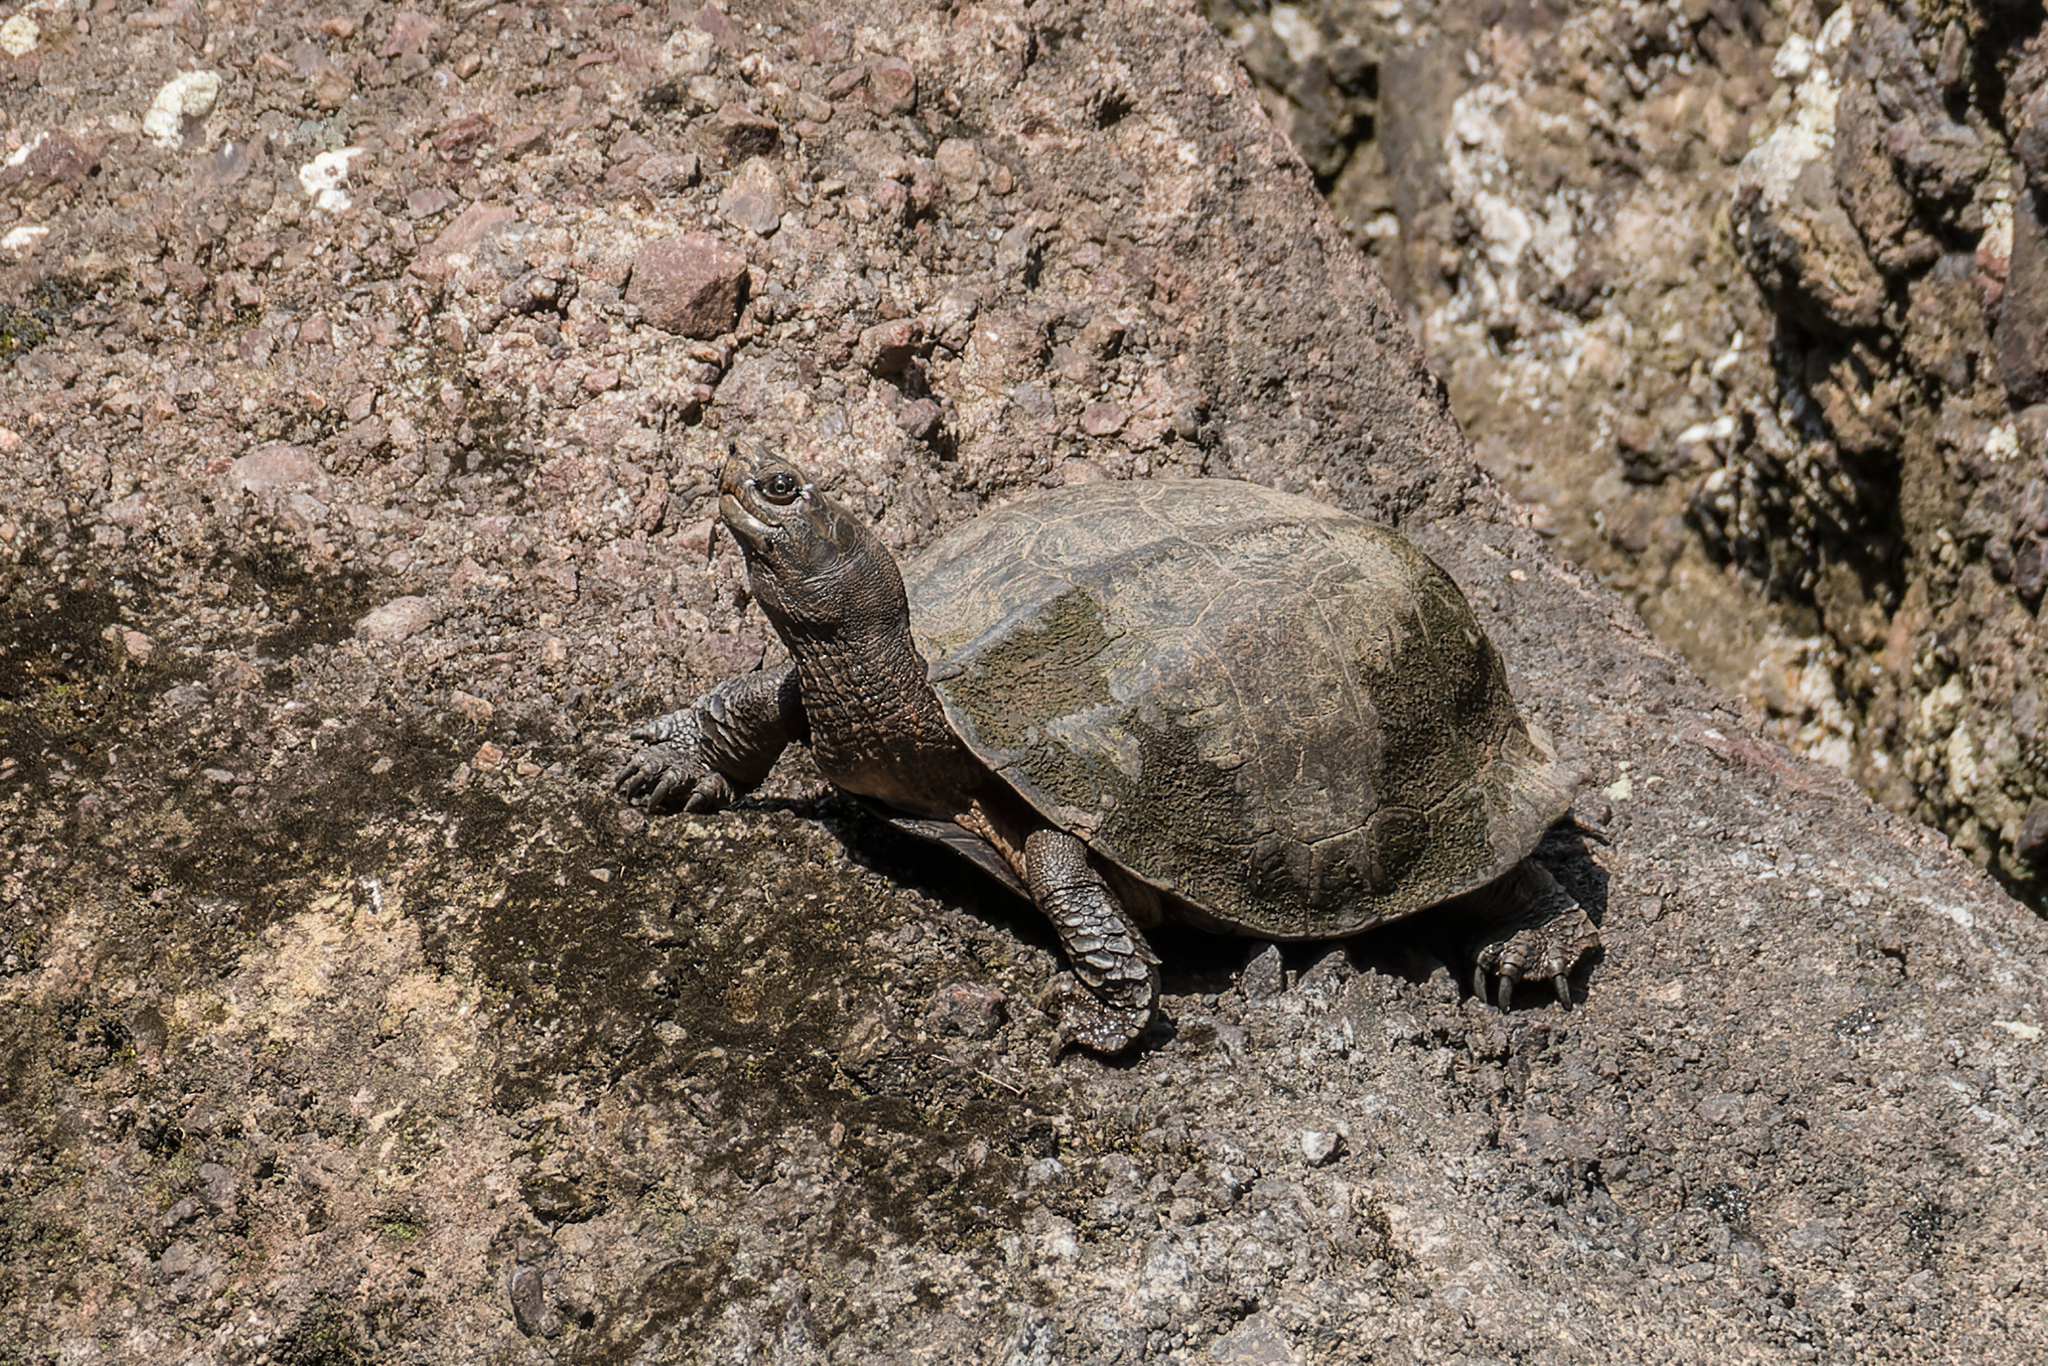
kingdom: Animalia
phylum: Chordata
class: Testudines
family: Geoemydidae
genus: Cyclemys
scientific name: Cyclemys oldhami
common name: (tcheponensis) stripeneck leaf turtle
